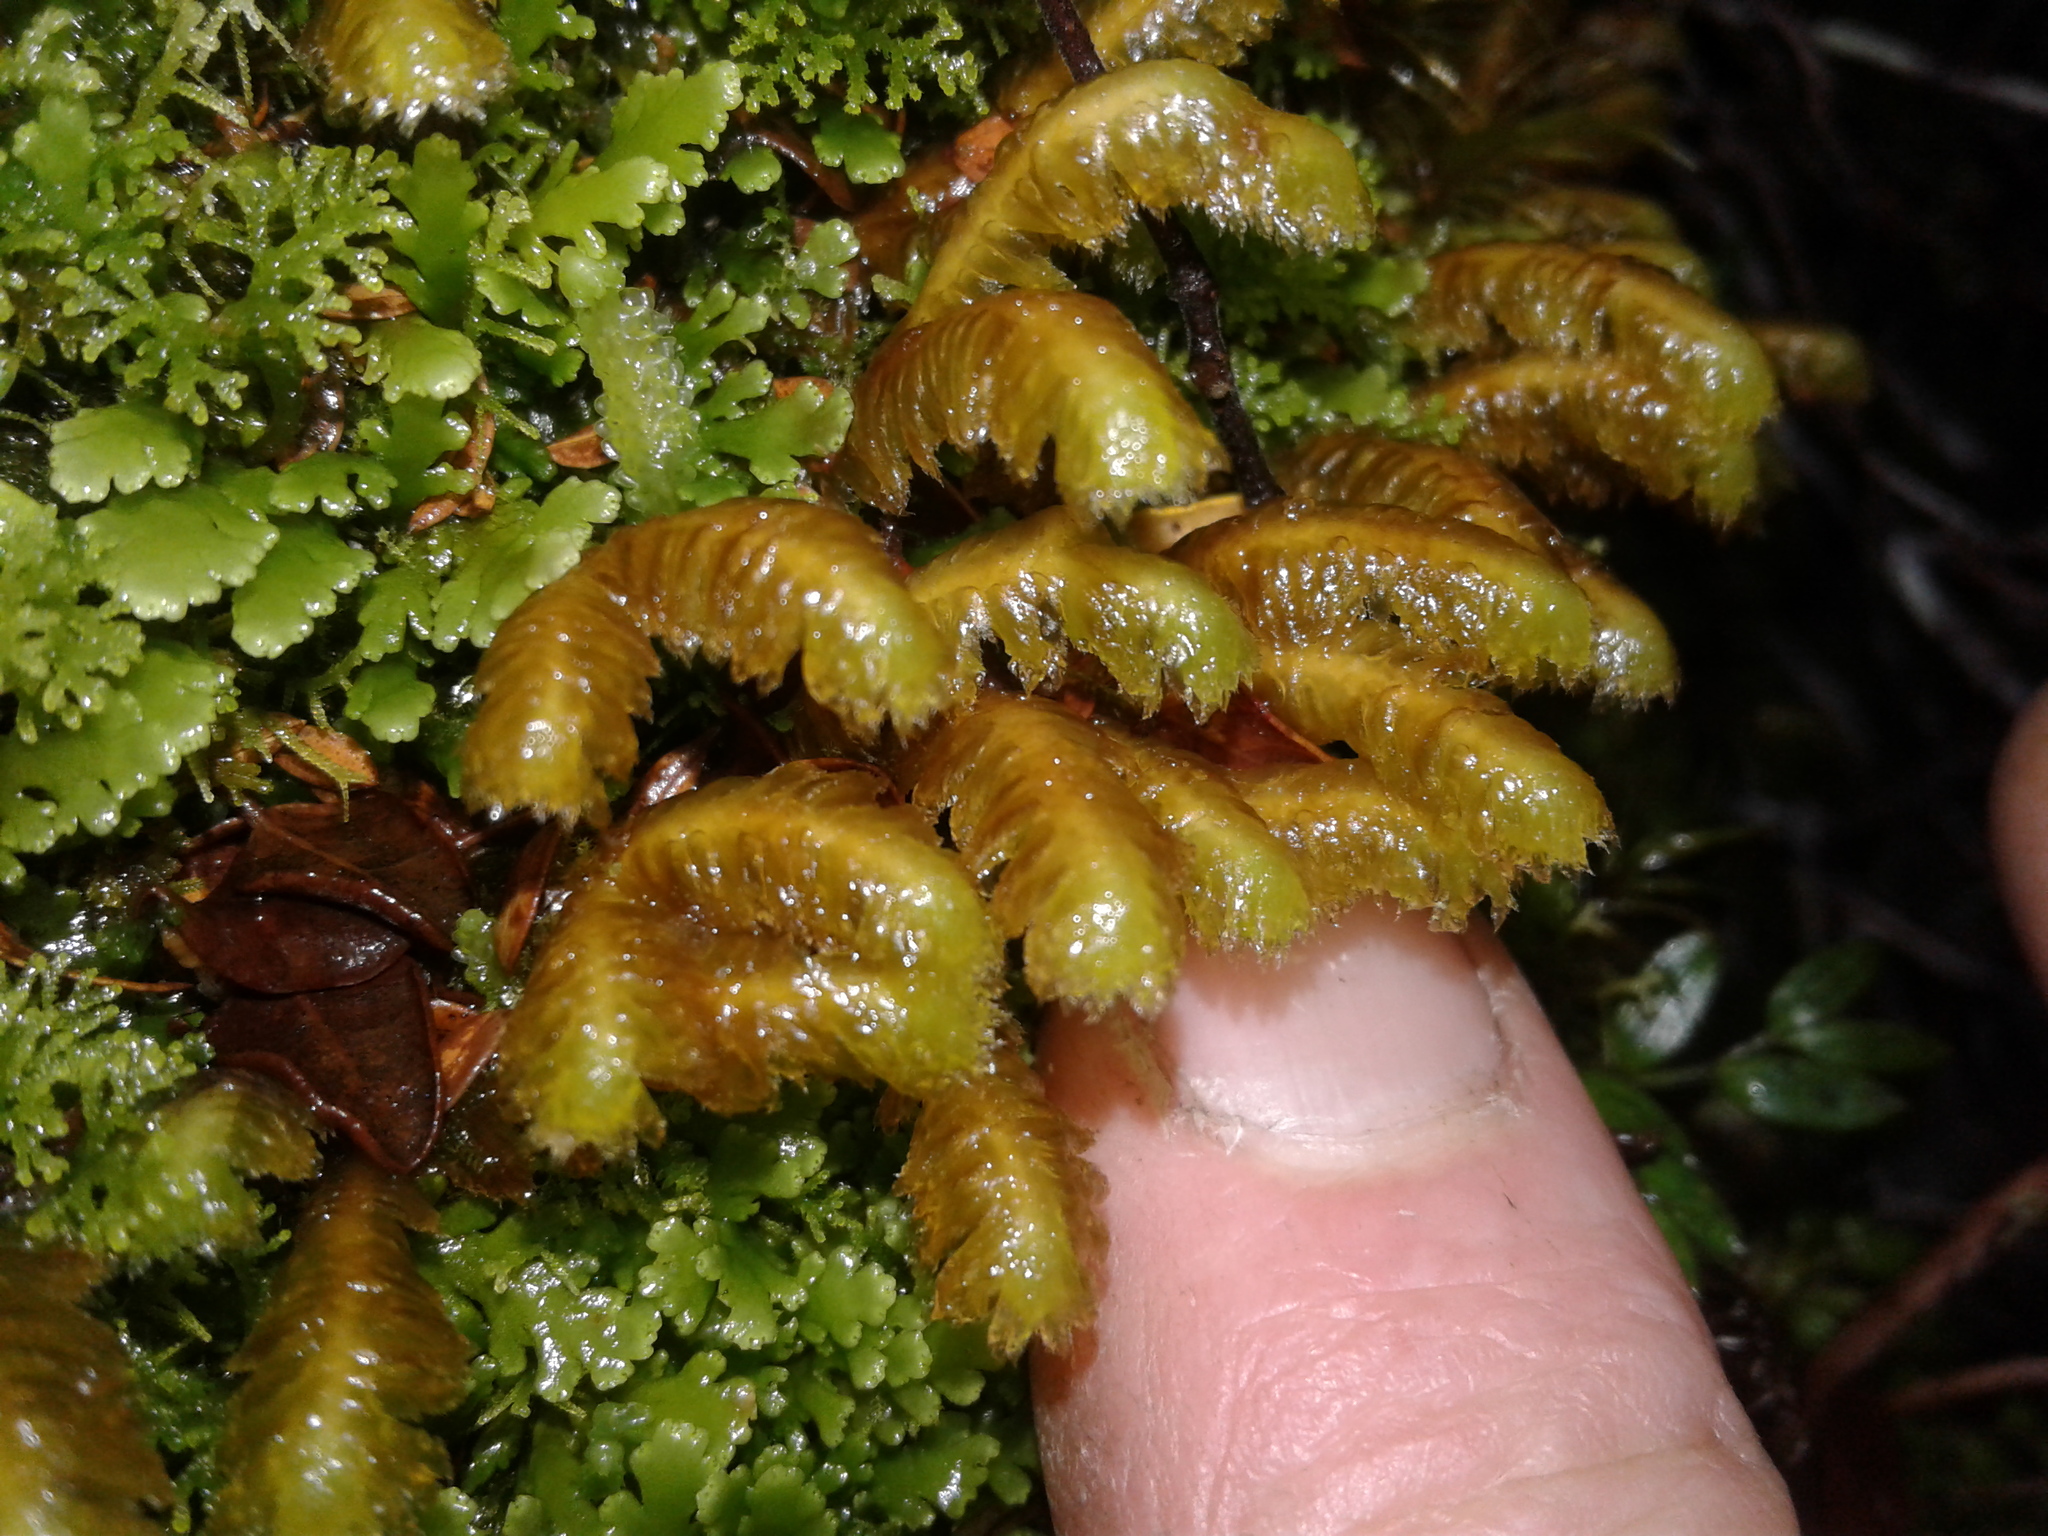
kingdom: Plantae
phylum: Marchantiophyta
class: Jungermanniopsida
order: Jungermanniales
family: Lepidoziaceae
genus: Bazzania
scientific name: Bazzania
